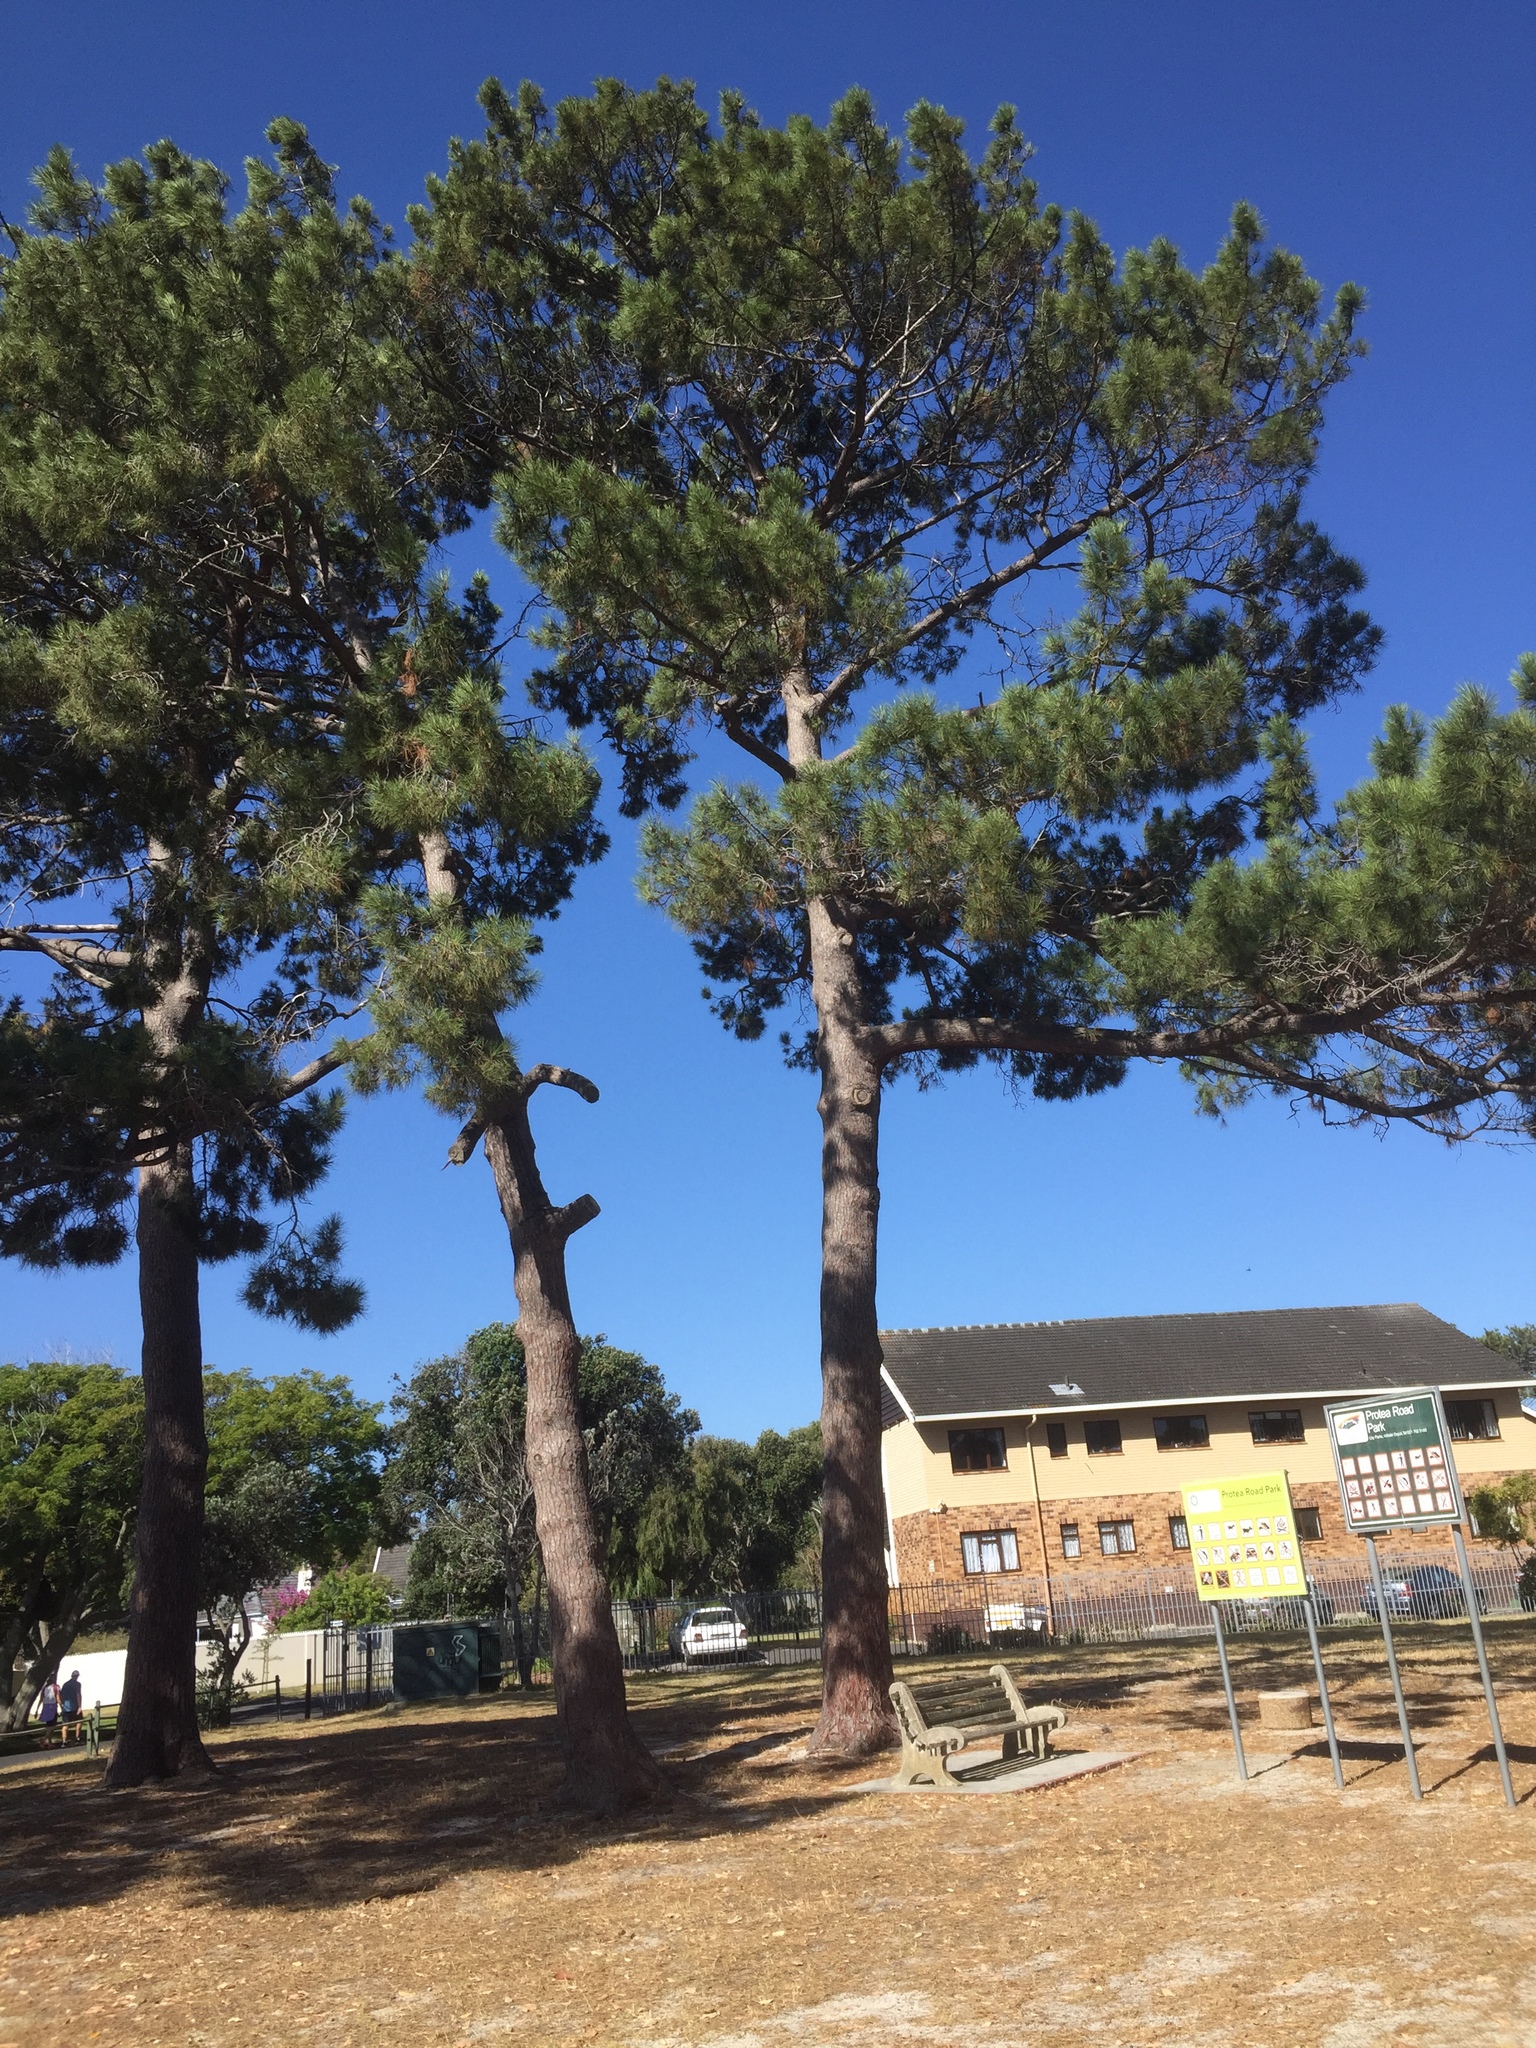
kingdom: Plantae
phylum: Tracheophyta
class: Pinopsida
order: Pinales
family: Pinaceae
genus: Pinus
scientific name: Pinus pinaster
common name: Maritime pine
